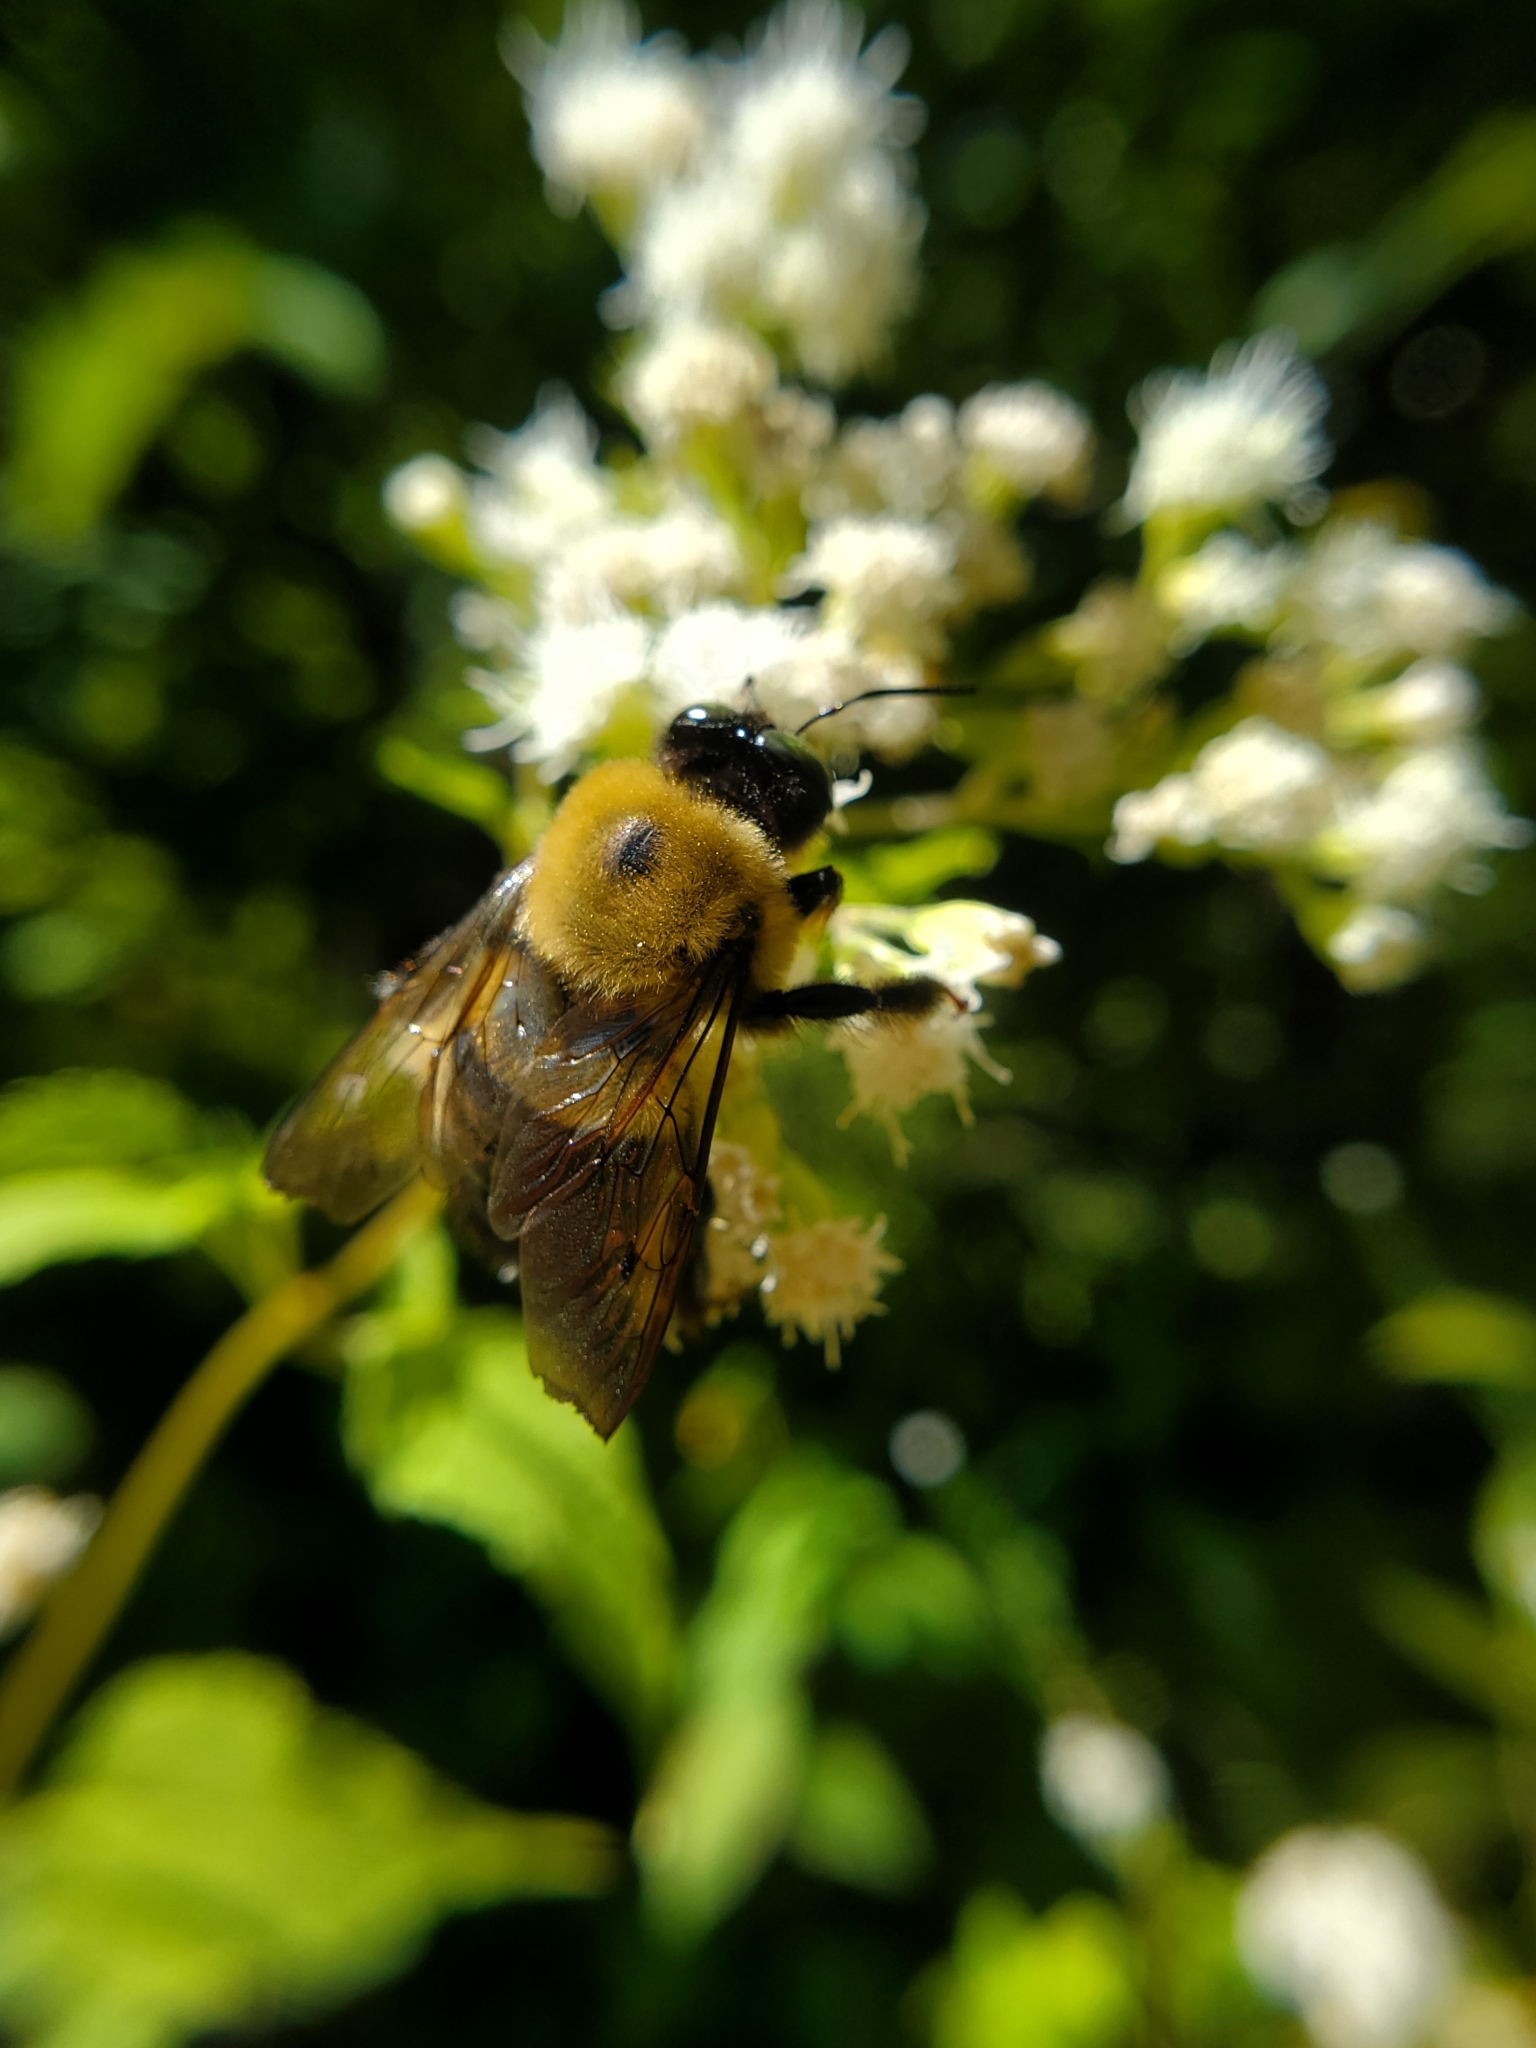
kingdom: Animalia
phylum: Arthropoda
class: Insecta
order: Hymenoptera
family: Apidae
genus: Xylocopa
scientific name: Xylocopa virginica
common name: Carpenter bee
